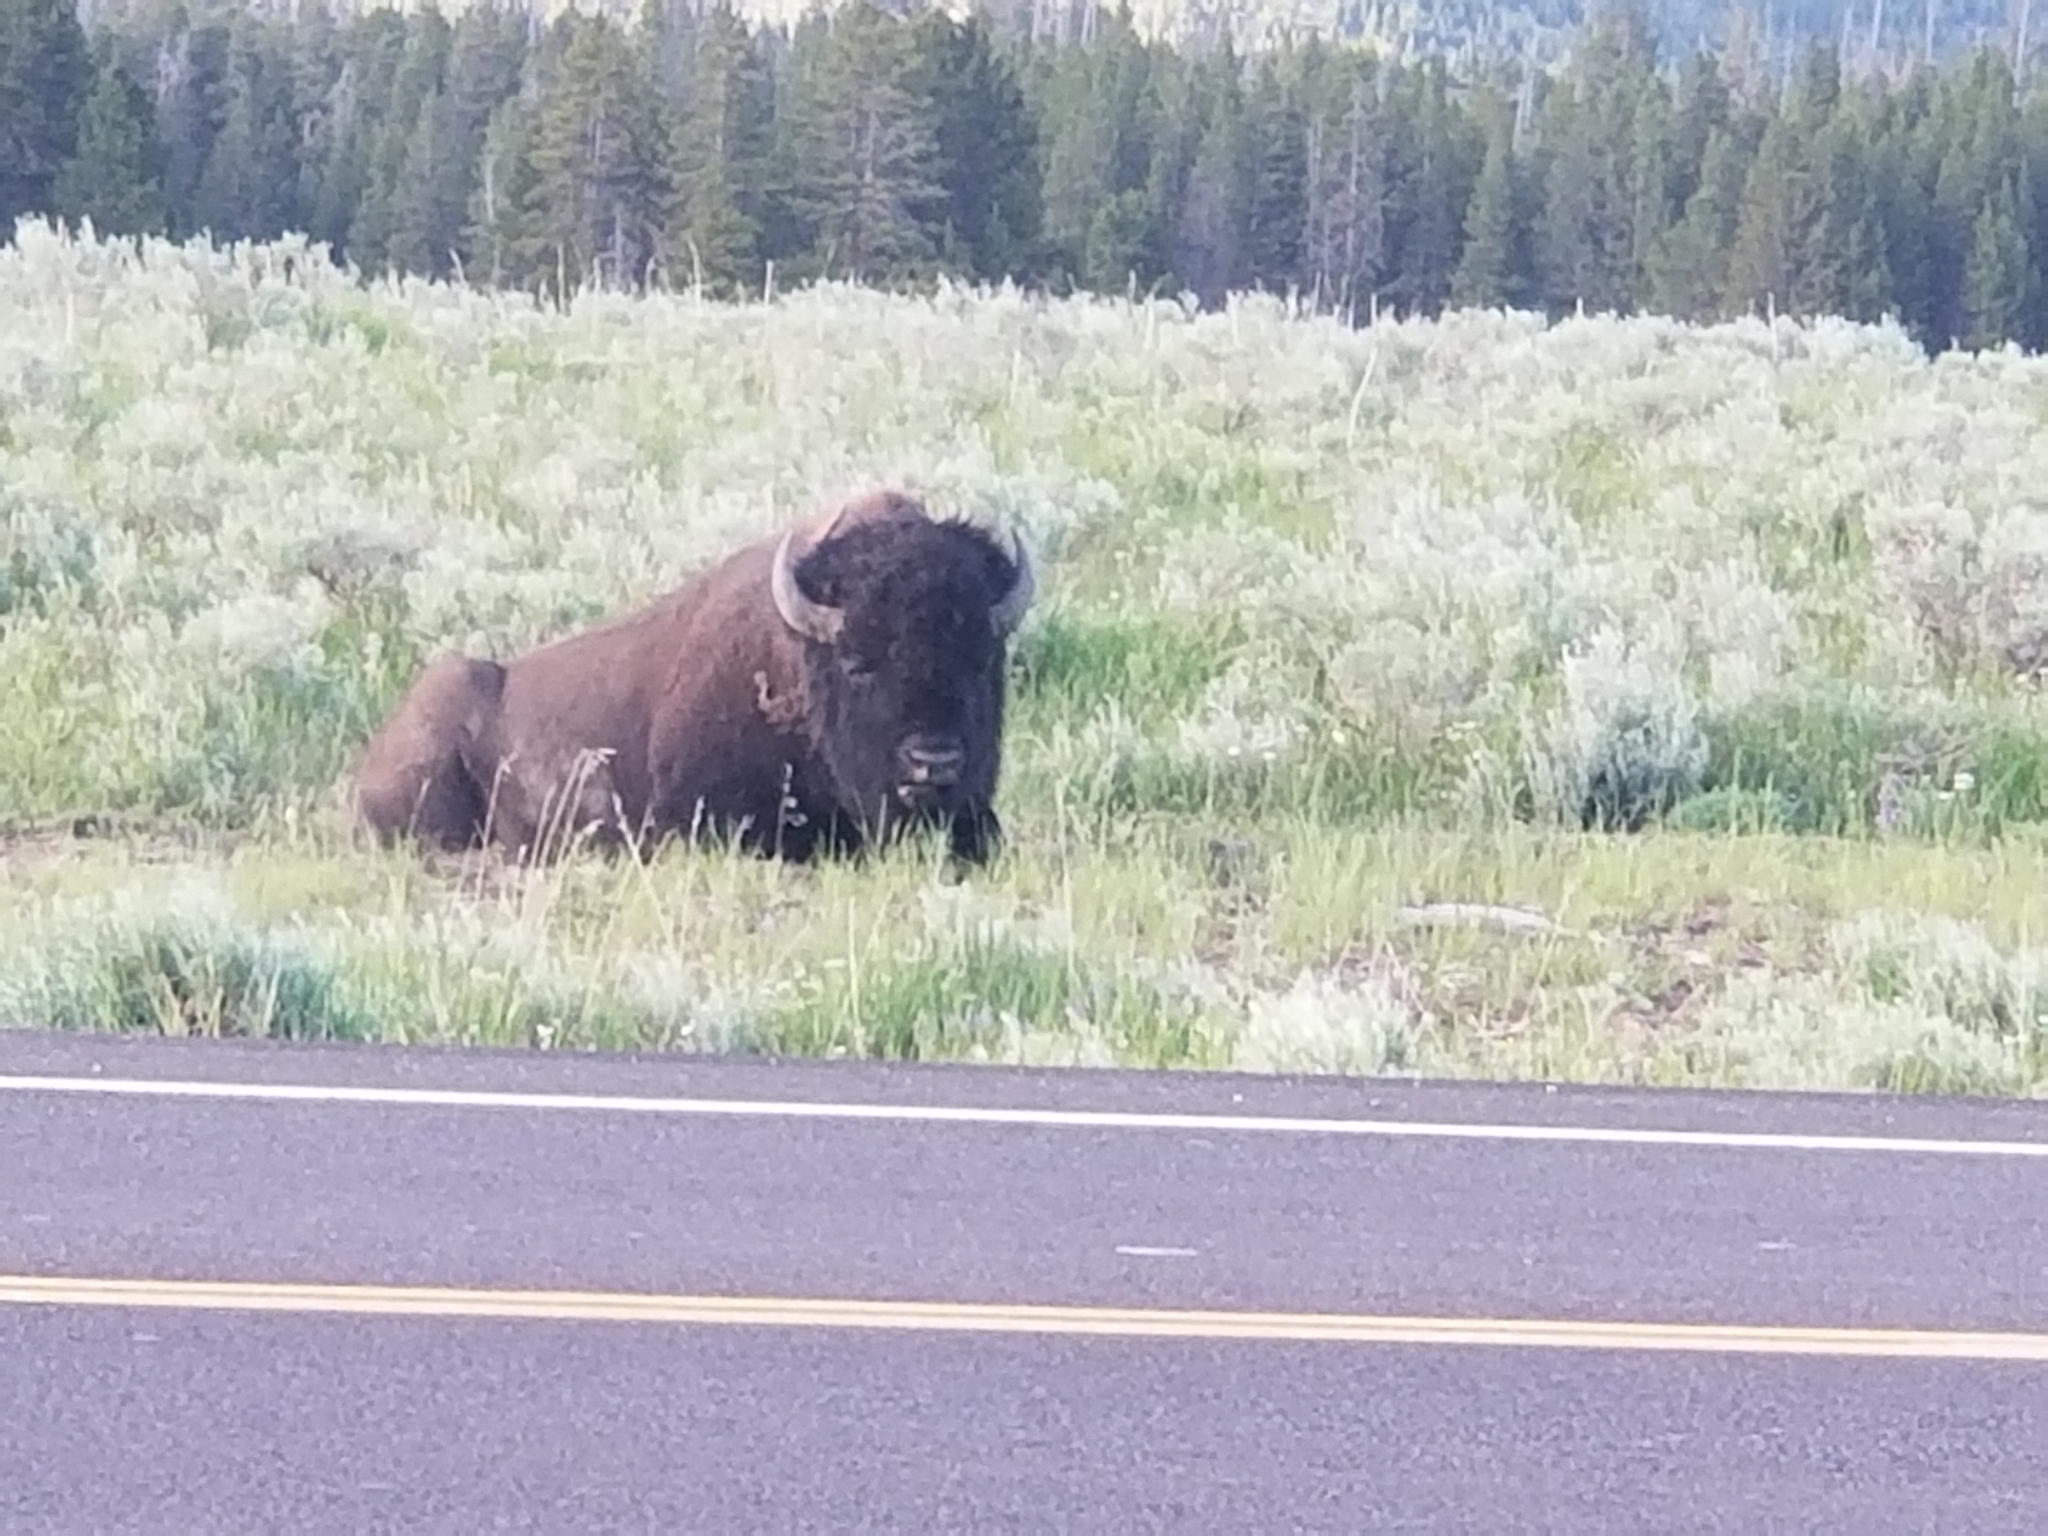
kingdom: Animalia
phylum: Chordata
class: Mammalia
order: Artiodactyla
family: Bovidae
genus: Bison
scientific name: Bison bison
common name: American bison
